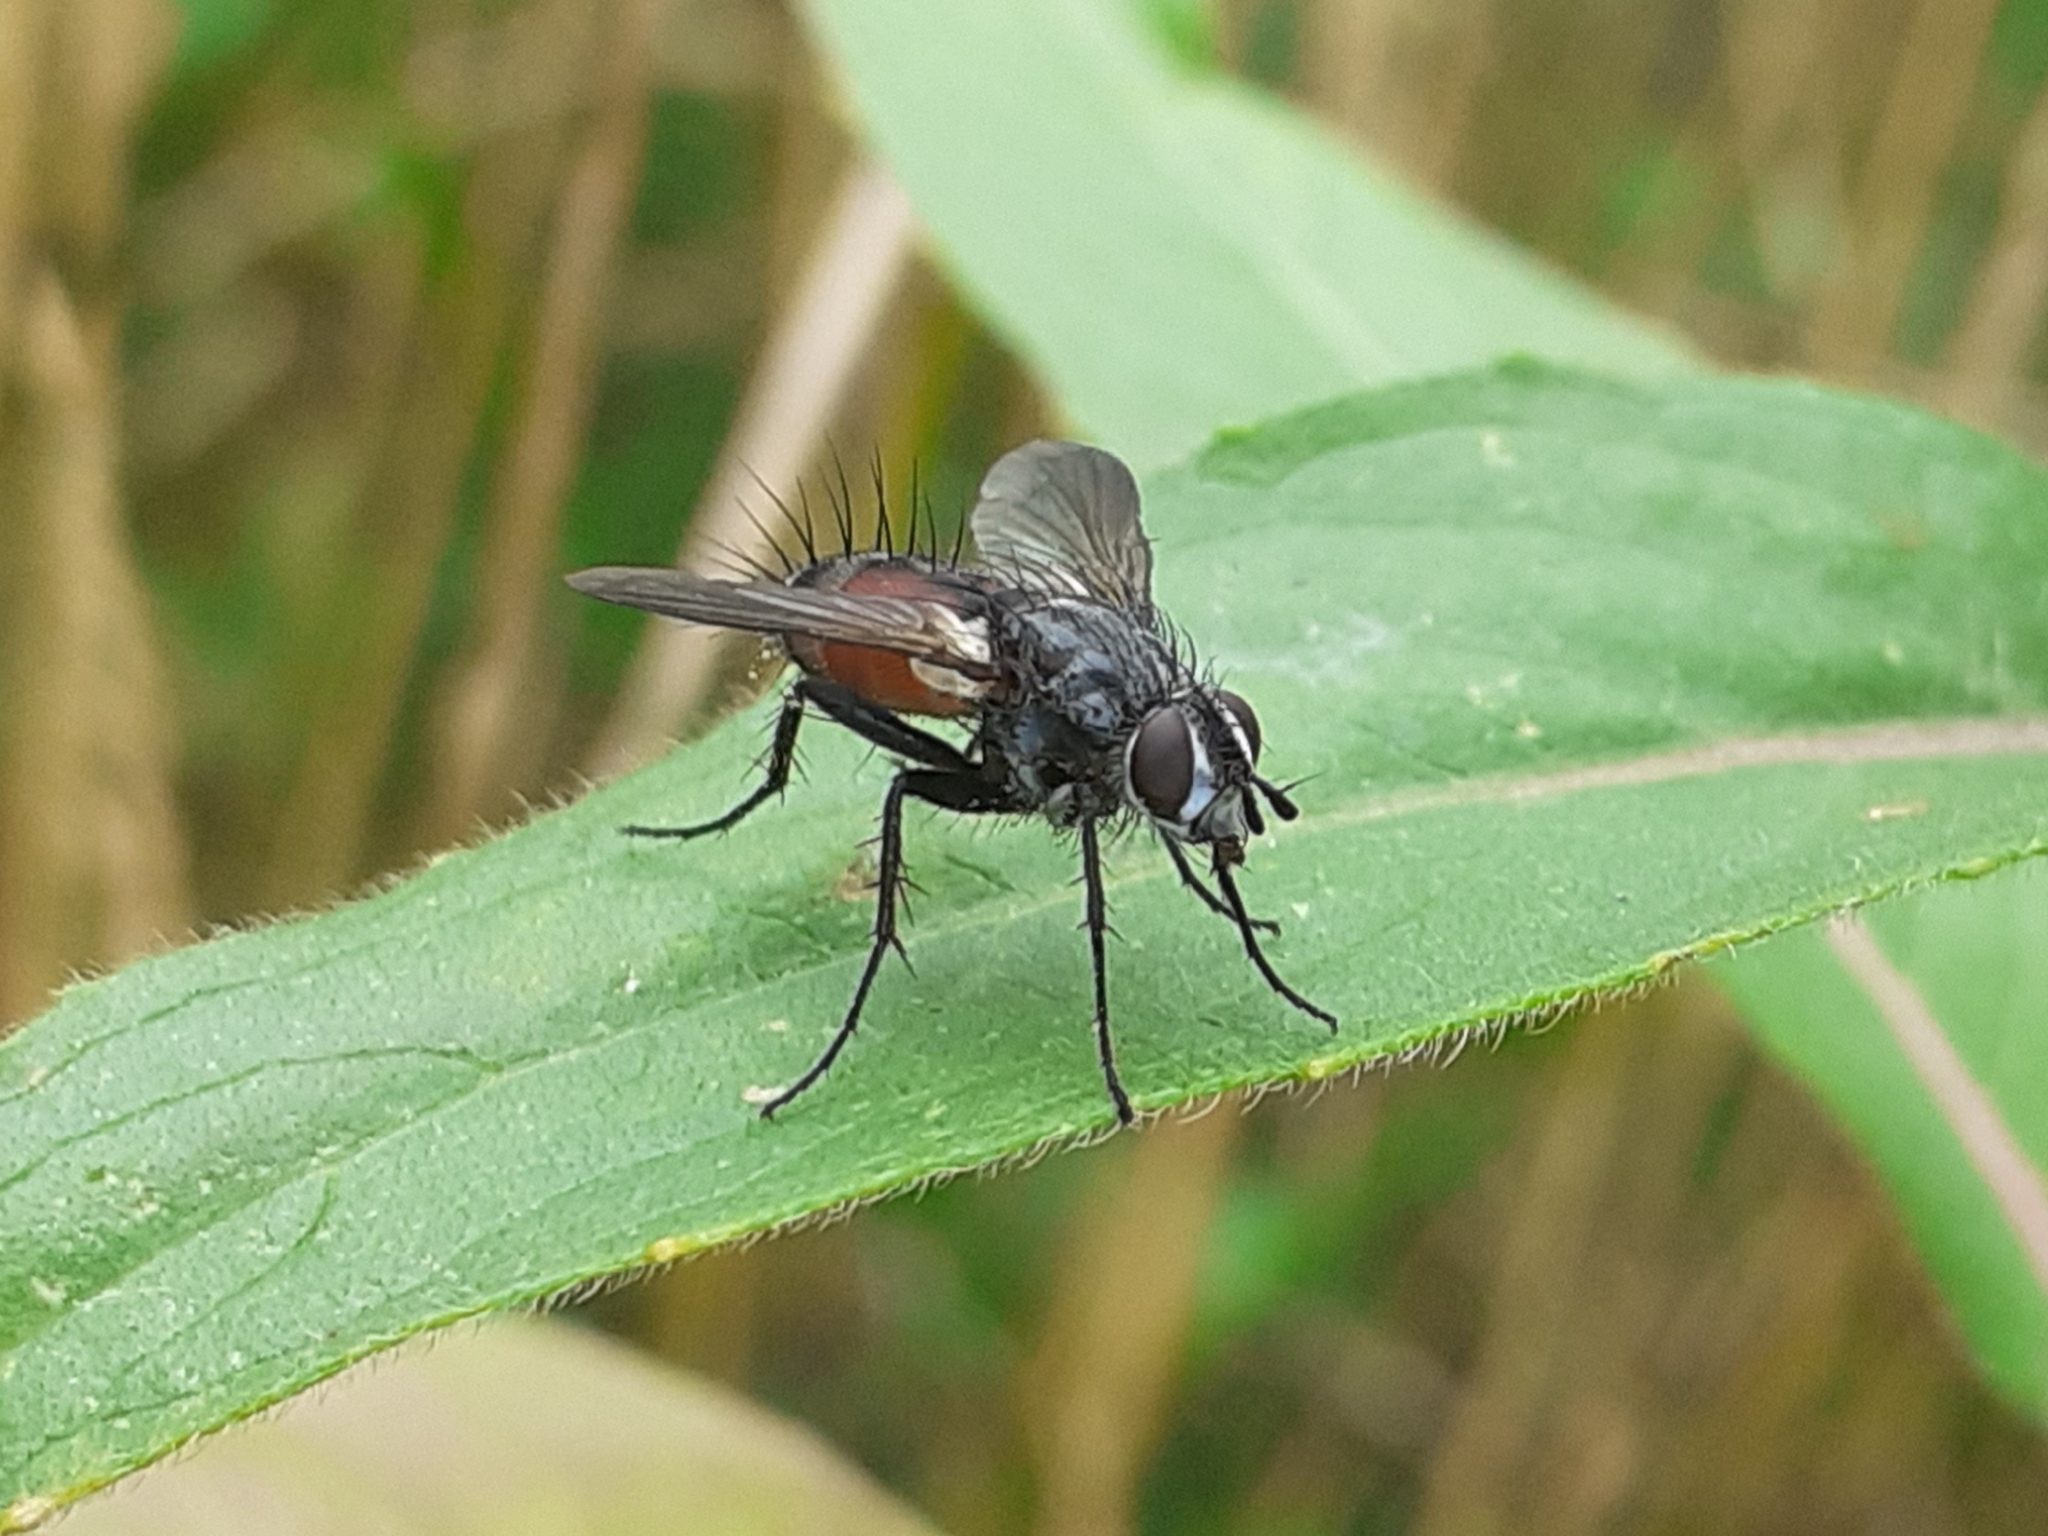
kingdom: Animalia
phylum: Arthropoda
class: Insecta
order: Diptera
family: Tachinidae
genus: Eriothrix
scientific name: Eriothrix rufomaculatus
